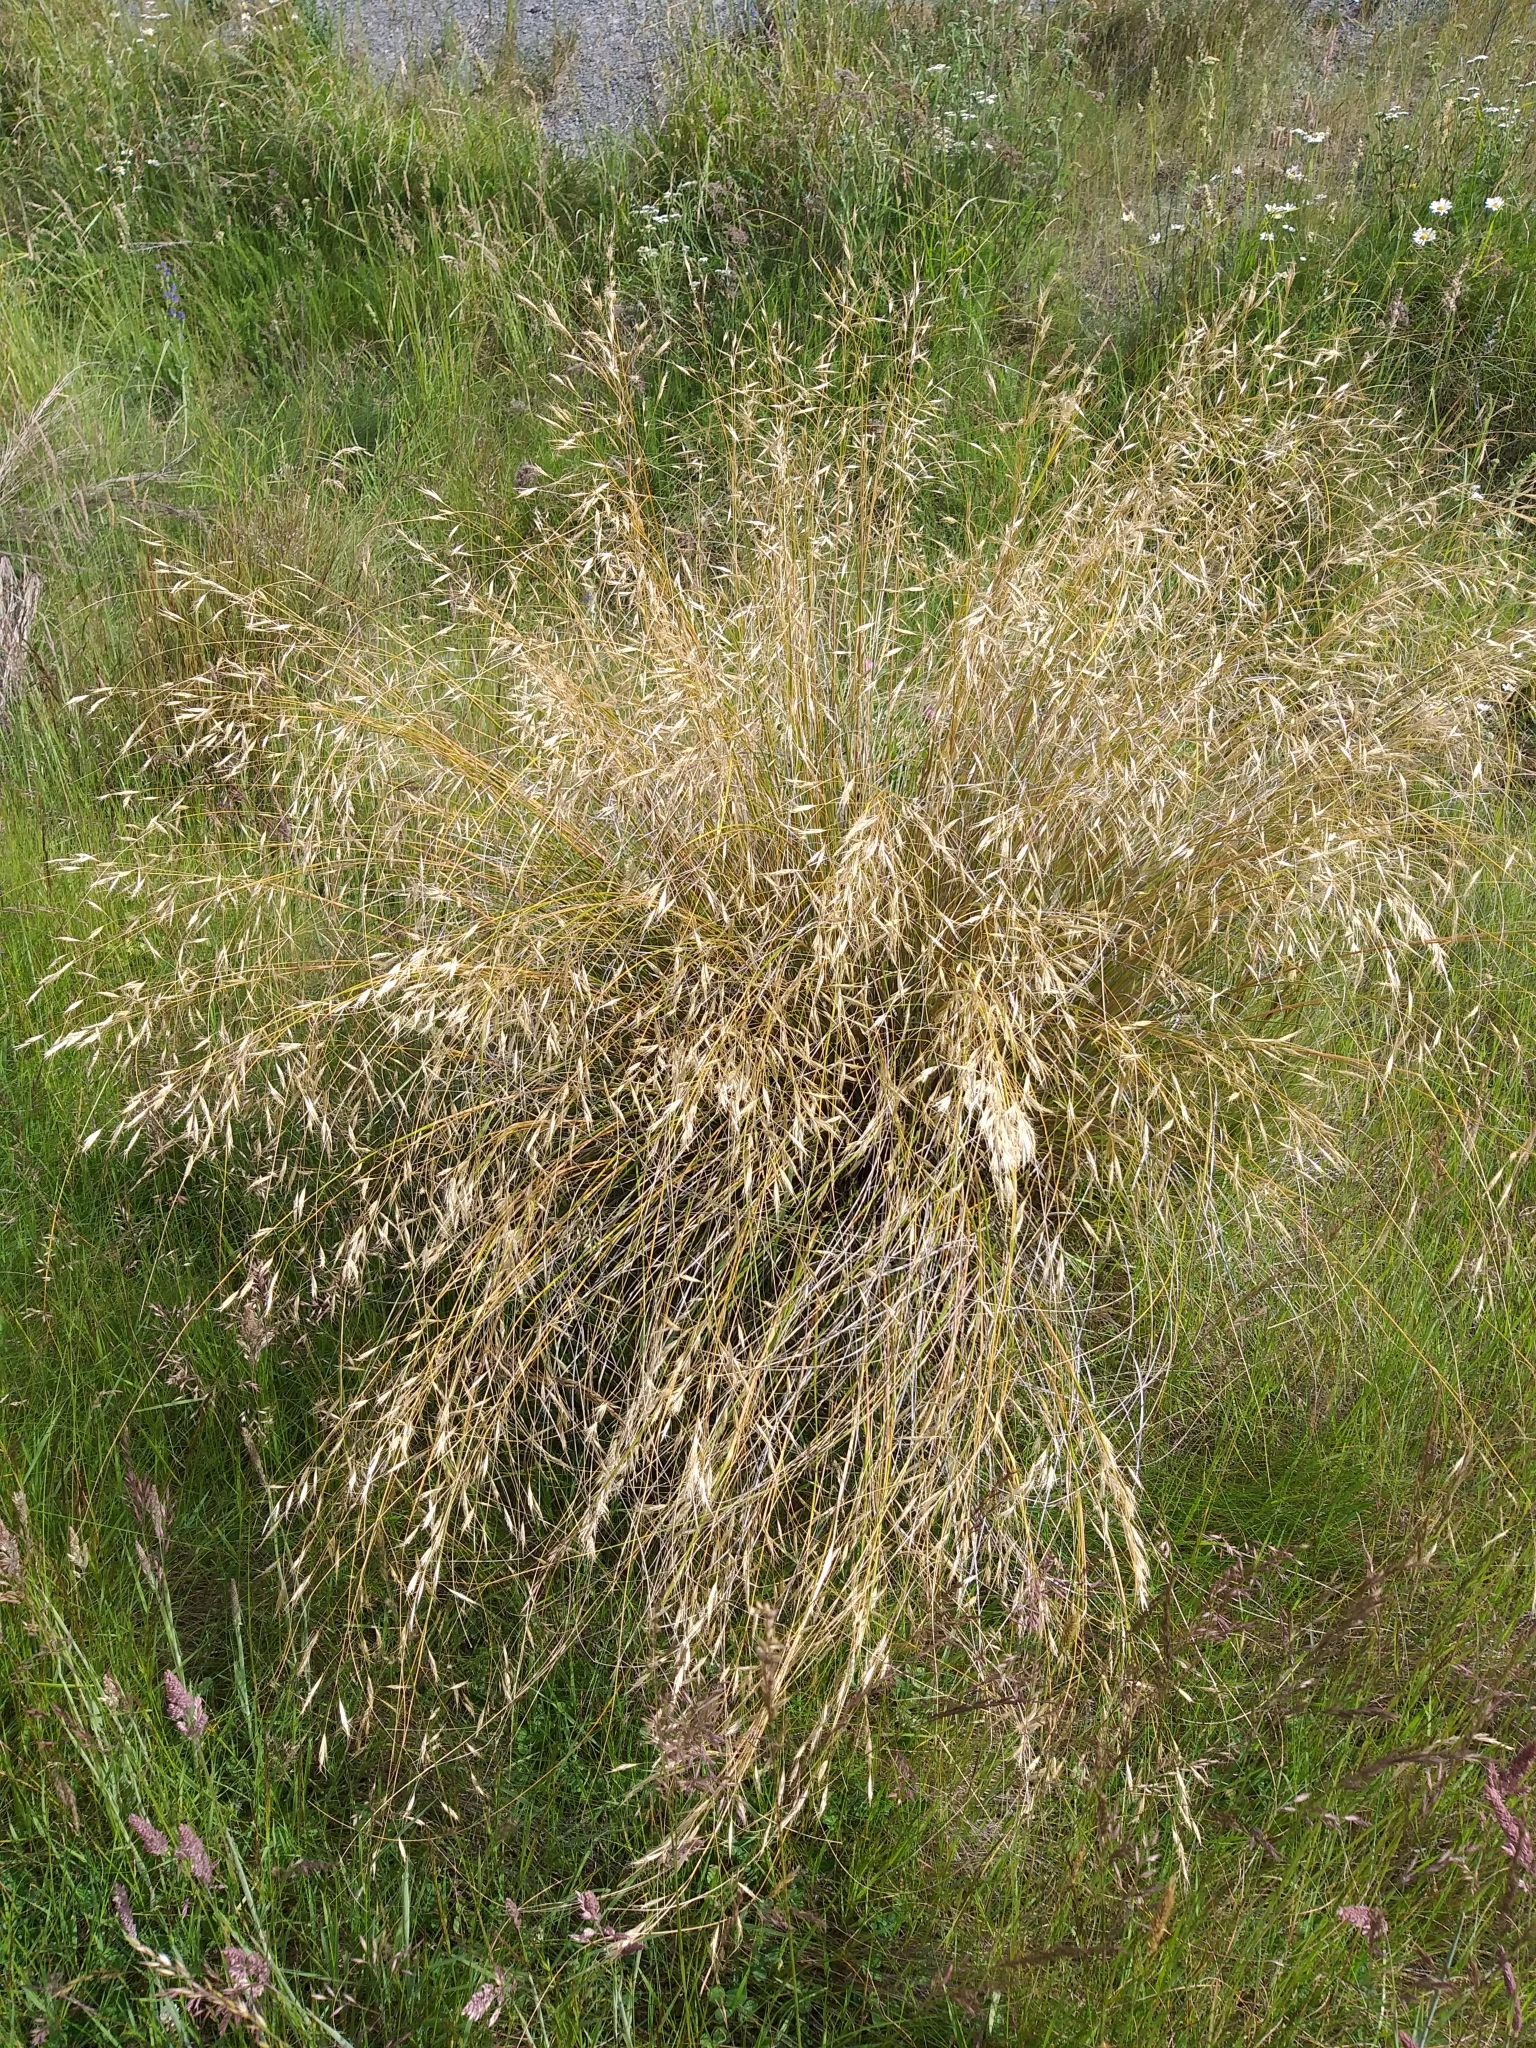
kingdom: Plantae
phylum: Tracheophyta
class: Liliopsida
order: Poales
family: Poaceae
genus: Chionochloa
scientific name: Chionochloa macra
